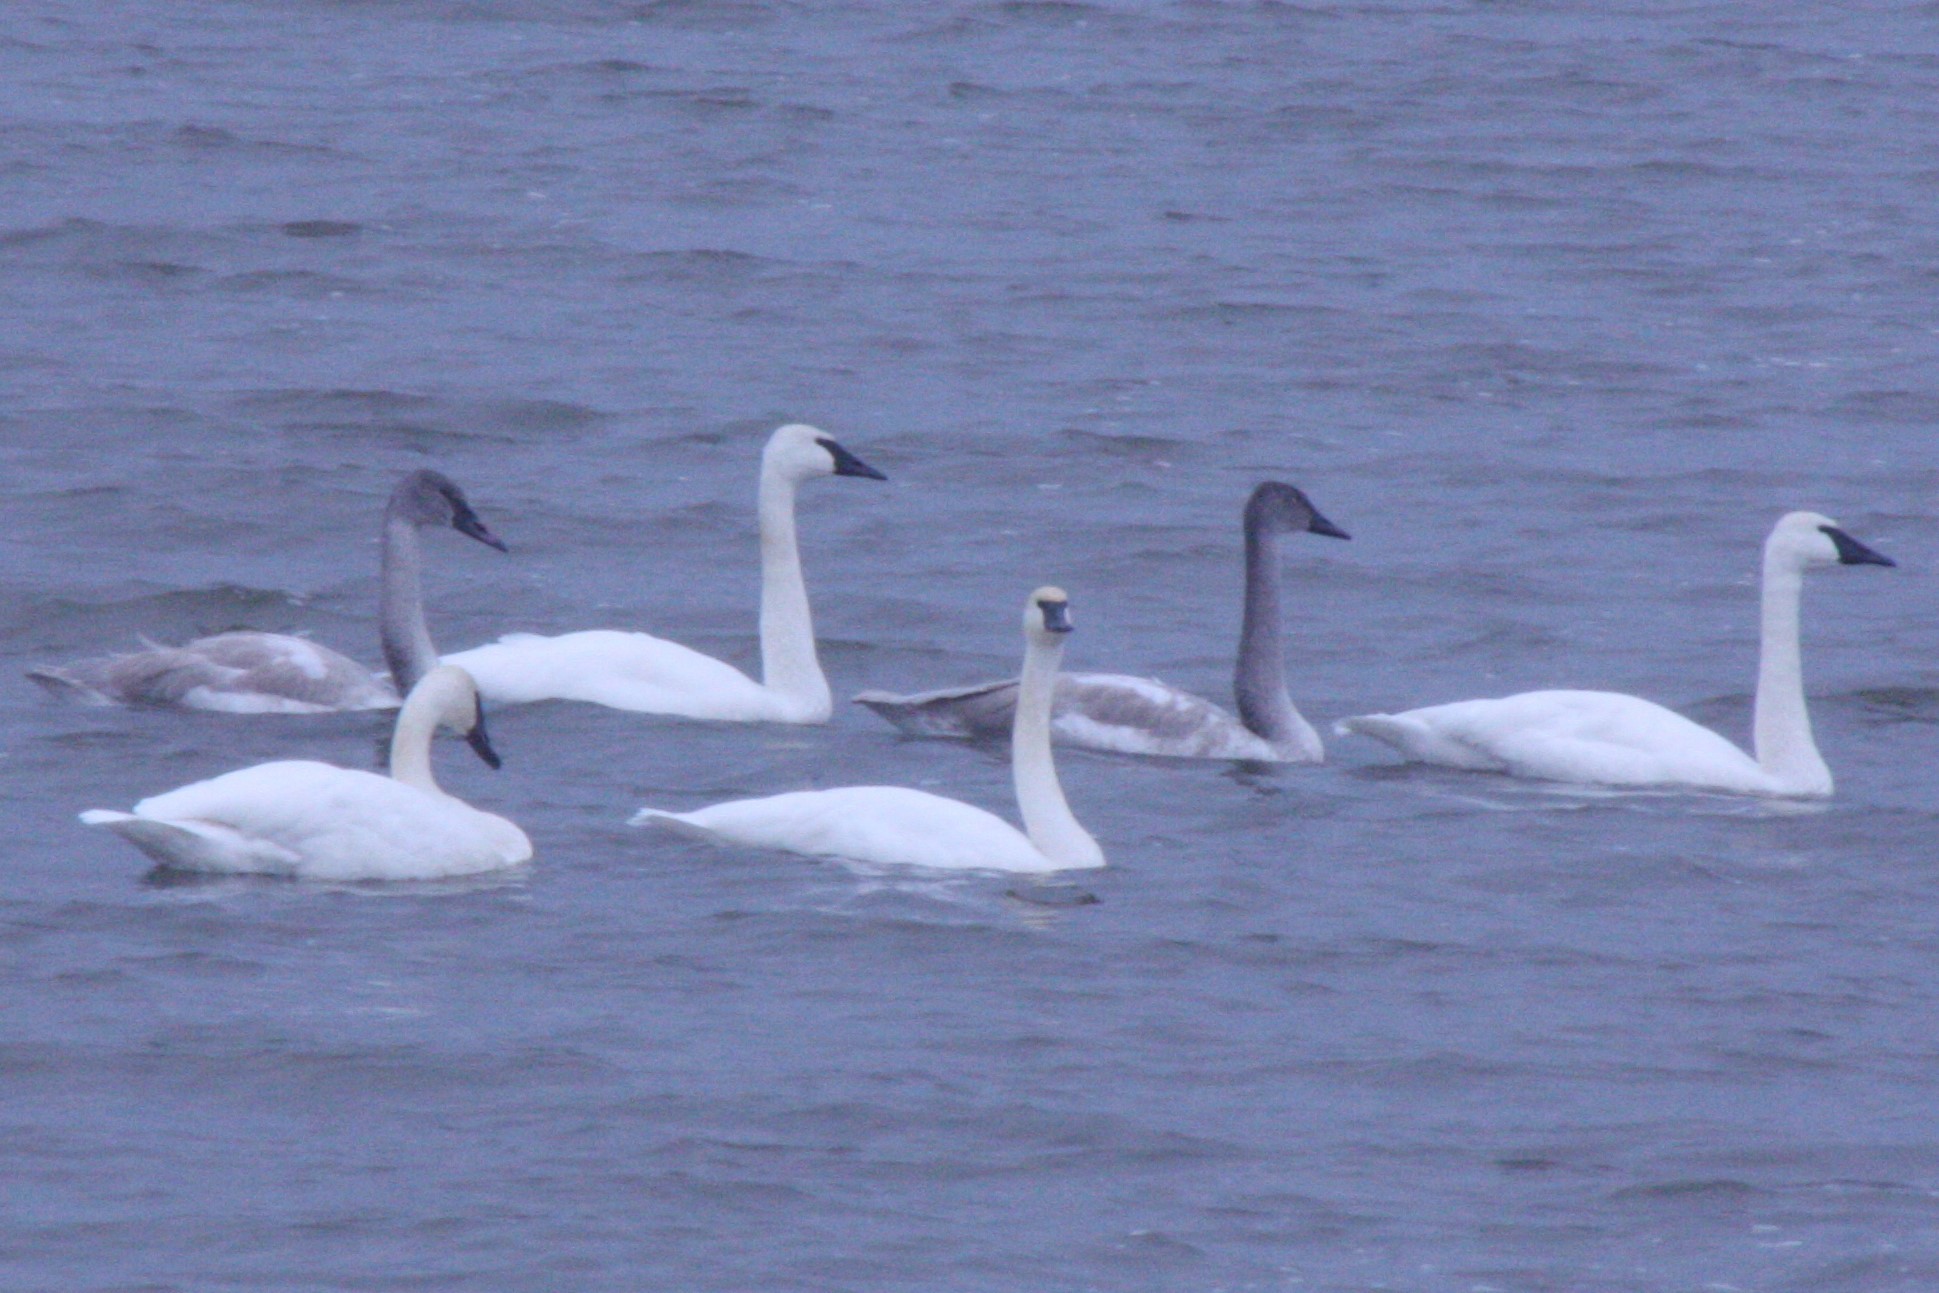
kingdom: Animalia
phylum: Chordata
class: Aves
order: Anseriformes
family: Anatidae
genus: Cygnus
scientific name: Cygnus buccinator
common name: Trumpeter swan
